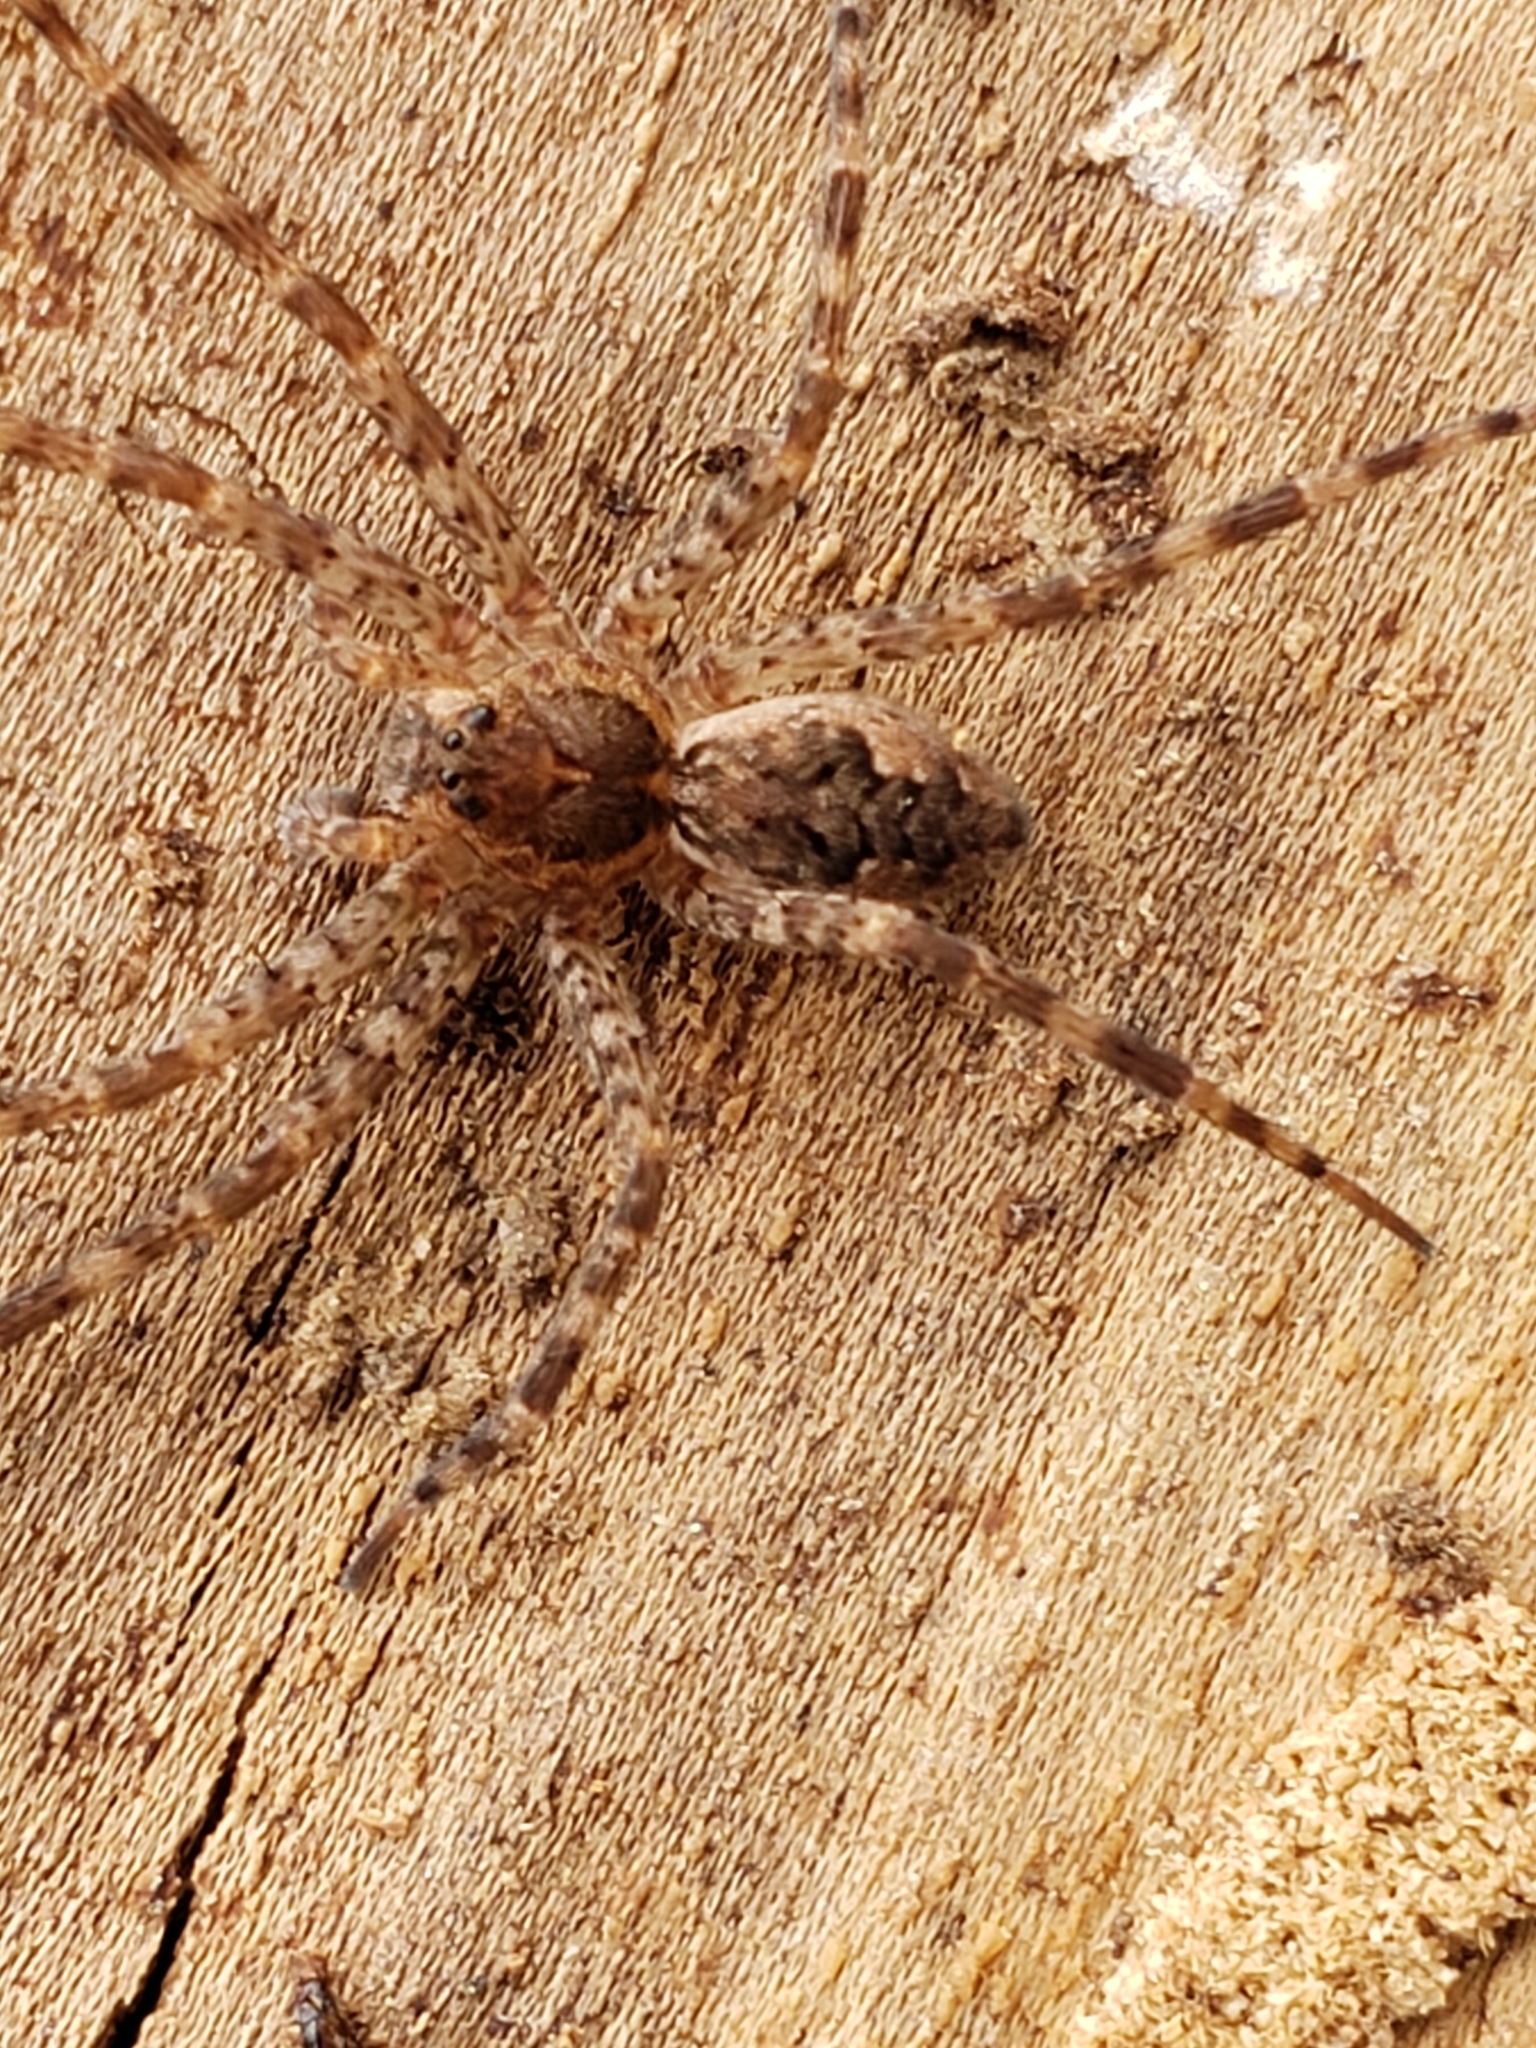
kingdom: Animalia
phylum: Arthropoda
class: Arachnida
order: Araneae
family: Pisauridae
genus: Dolomedes
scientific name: Dolomedes tenebrosus
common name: Dark fishing spider
